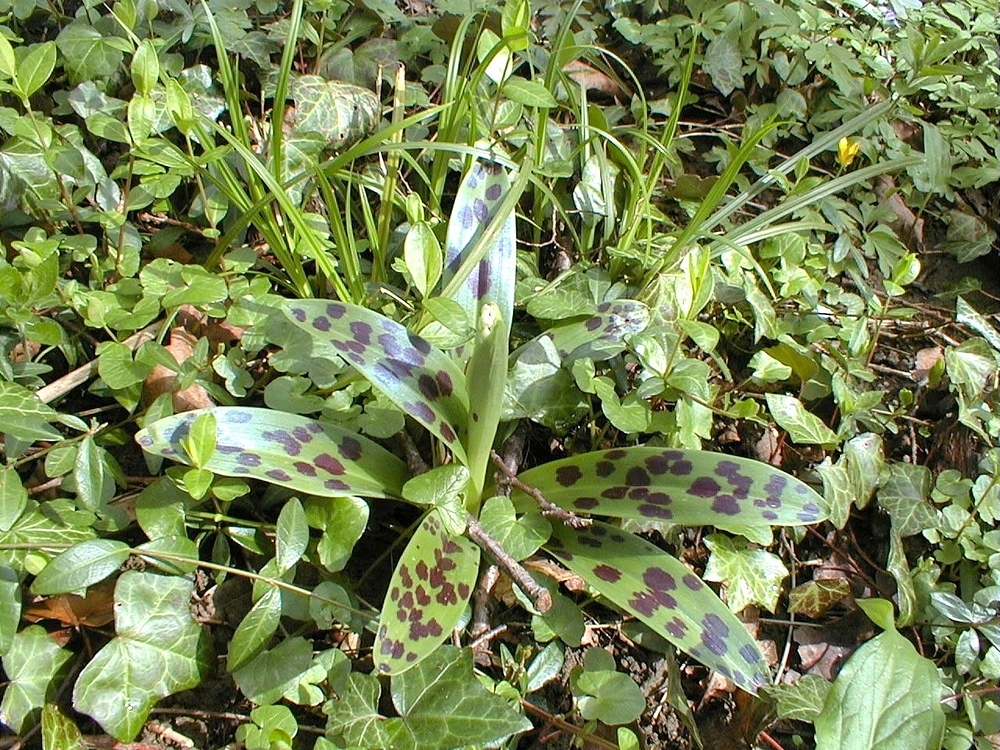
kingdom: Plantae
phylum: Tracheophyta
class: Liliopsida
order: Asparagales
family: Orchidaceae
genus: Orchis
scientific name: Orchis mascula
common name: Early-purple orchid
